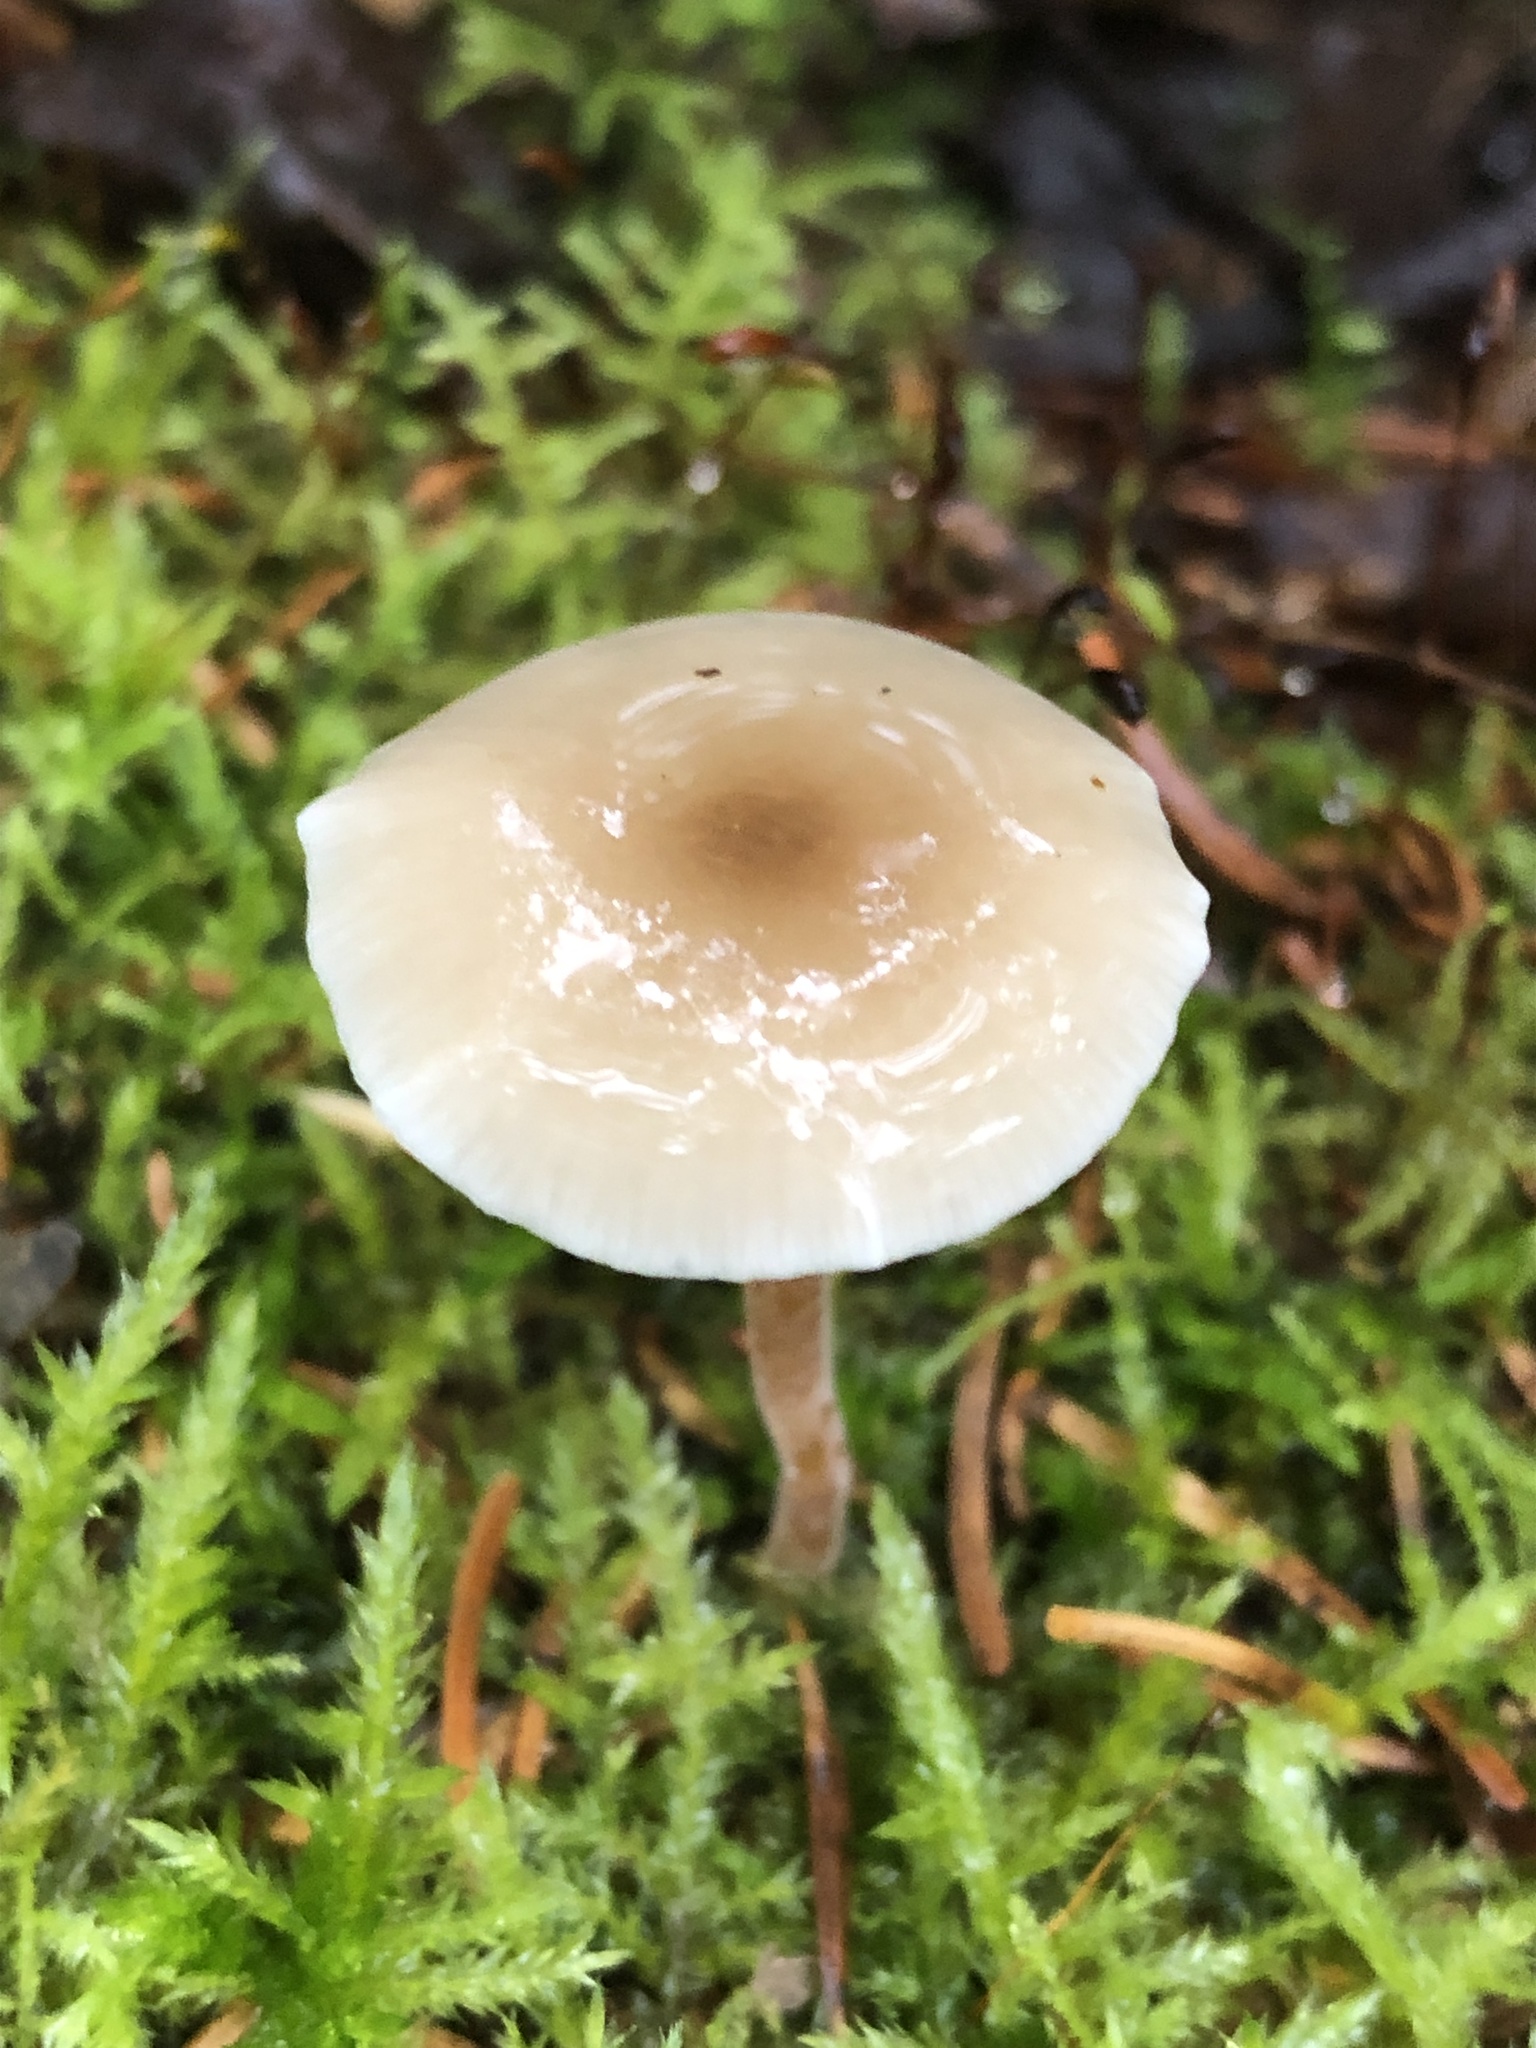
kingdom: Fungi
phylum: Basidiomycota
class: Agaricomycetes
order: Agaricales
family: Physalacriaceae
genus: Strobilurus
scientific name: Strobilurus albipilatus
